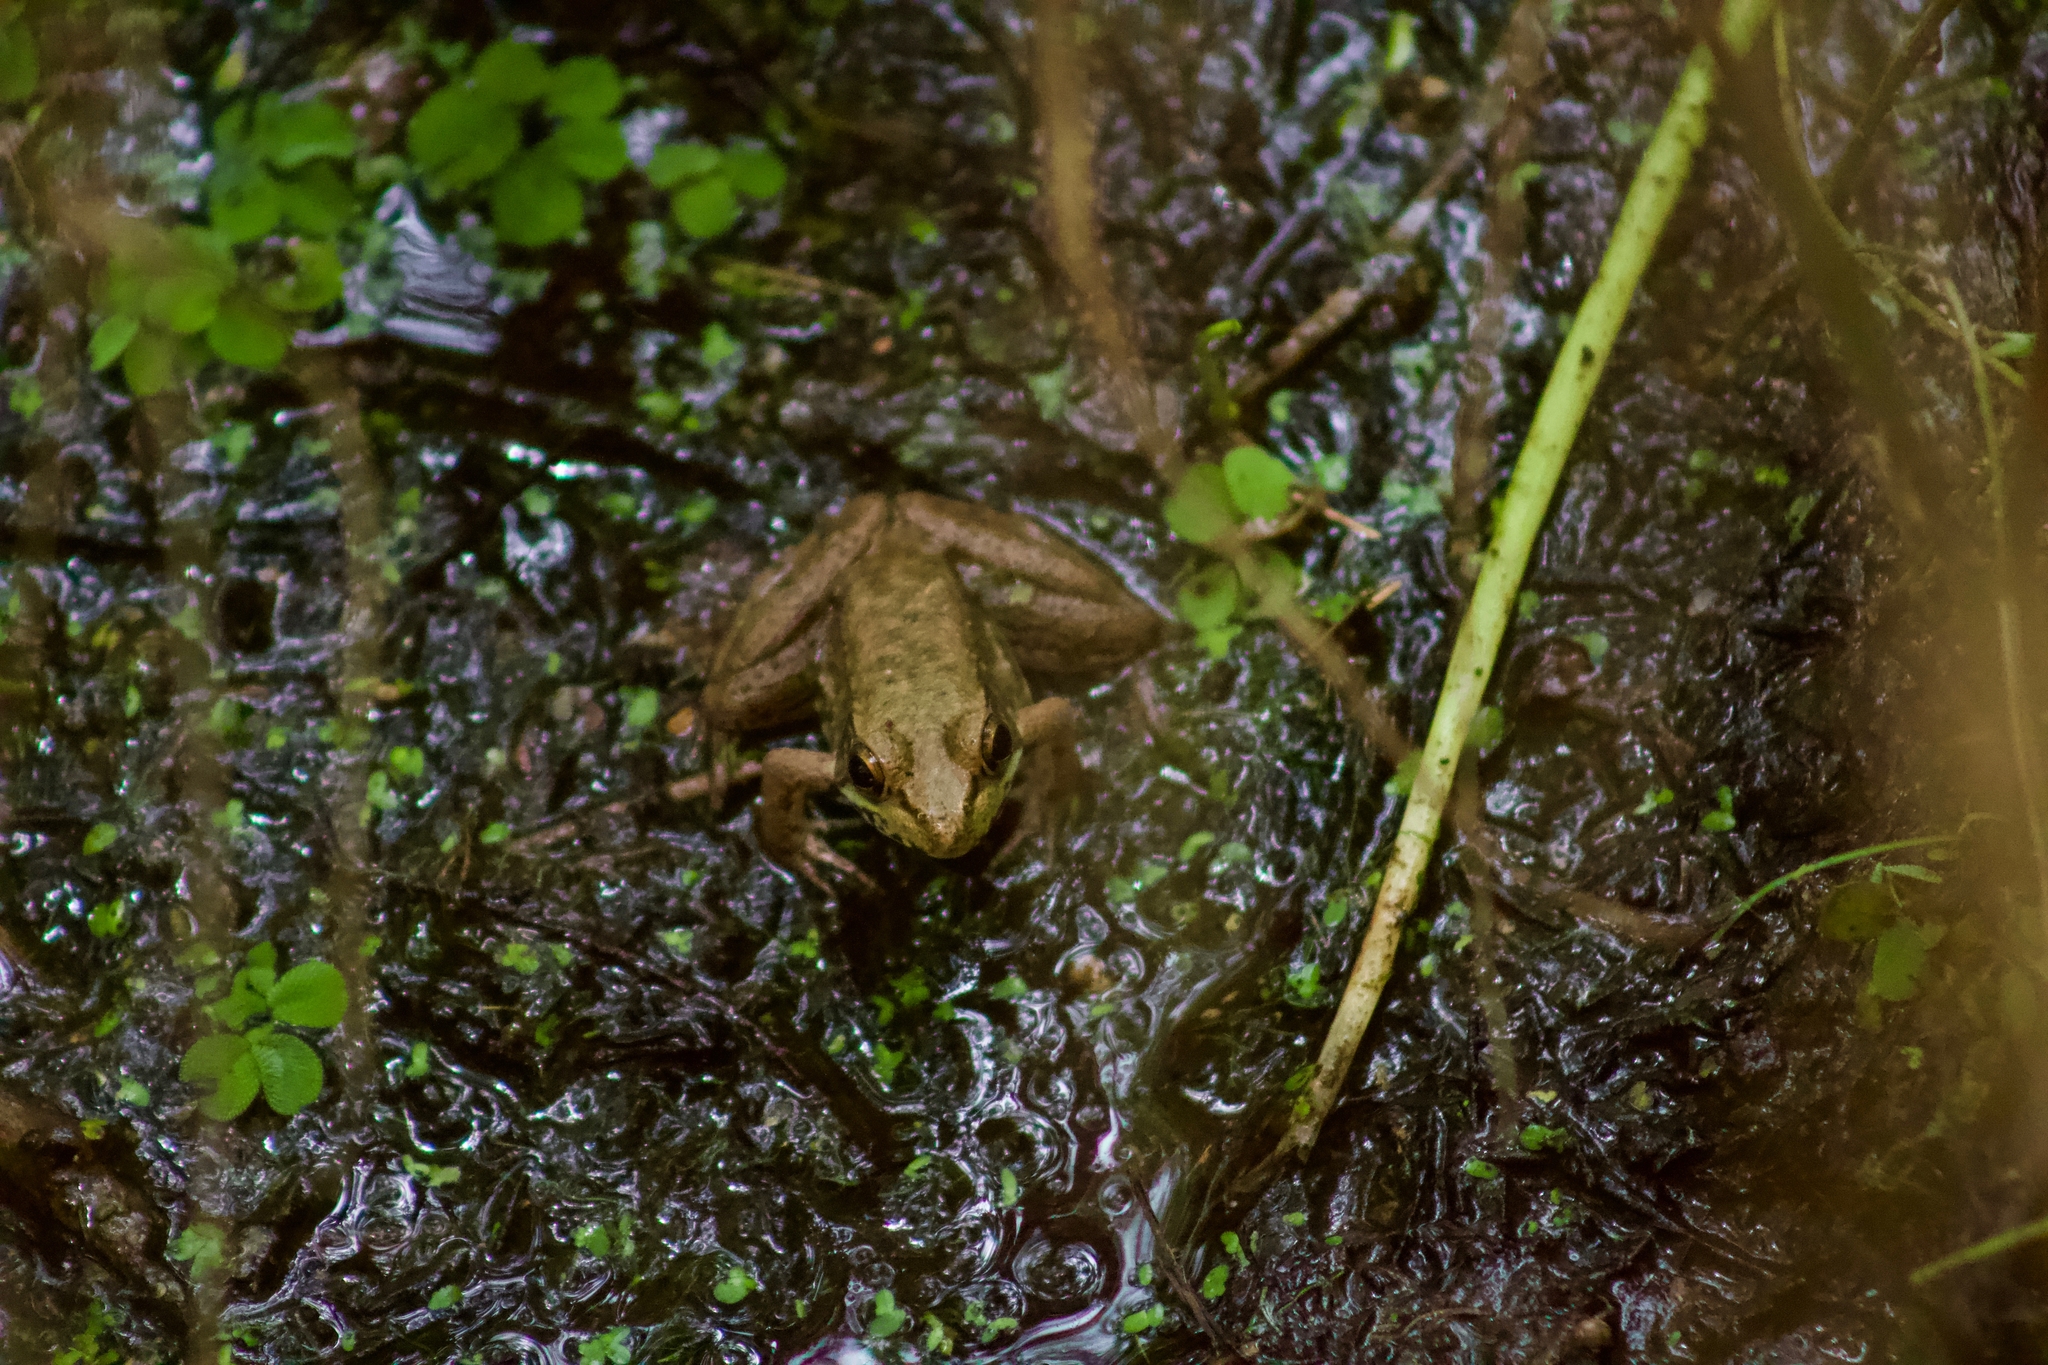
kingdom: Animalia
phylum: Chordata
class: Amphibia
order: Anura
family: Ranidae
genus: Lithobates
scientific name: Lithobates clamitans
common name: Green frog
